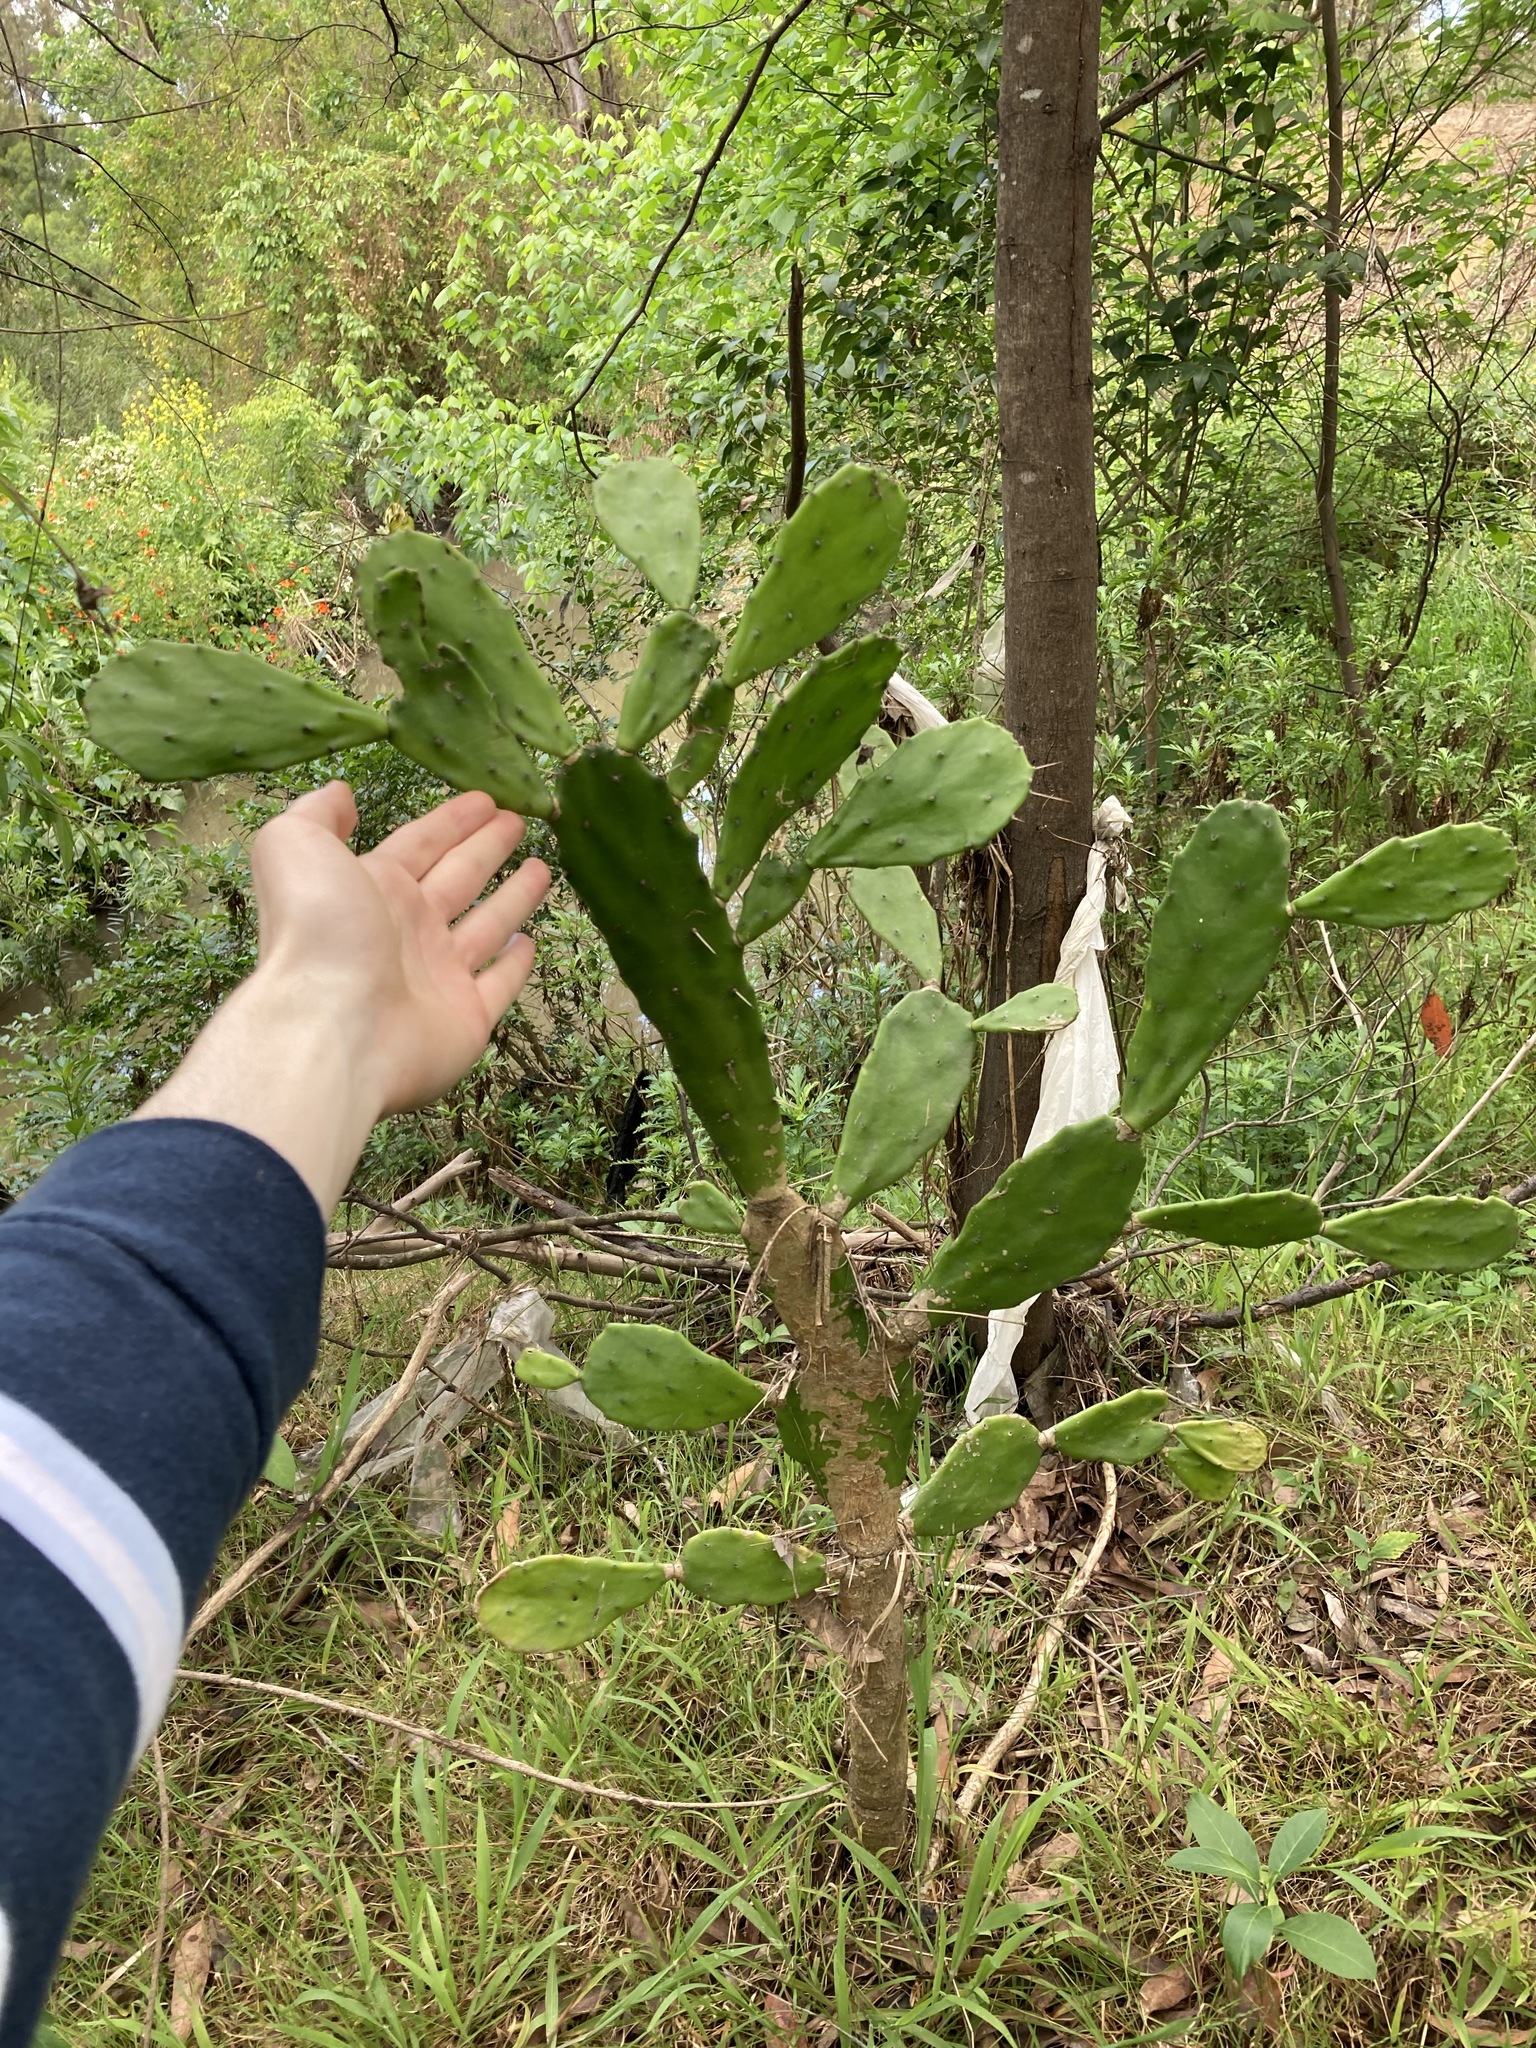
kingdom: Plantae
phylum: Tracheophyta
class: Magnoliopsida
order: Caryophyllales
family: Cactaceae
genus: Opuntia
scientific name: Opuntia monacantha
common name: Common pricklypear
